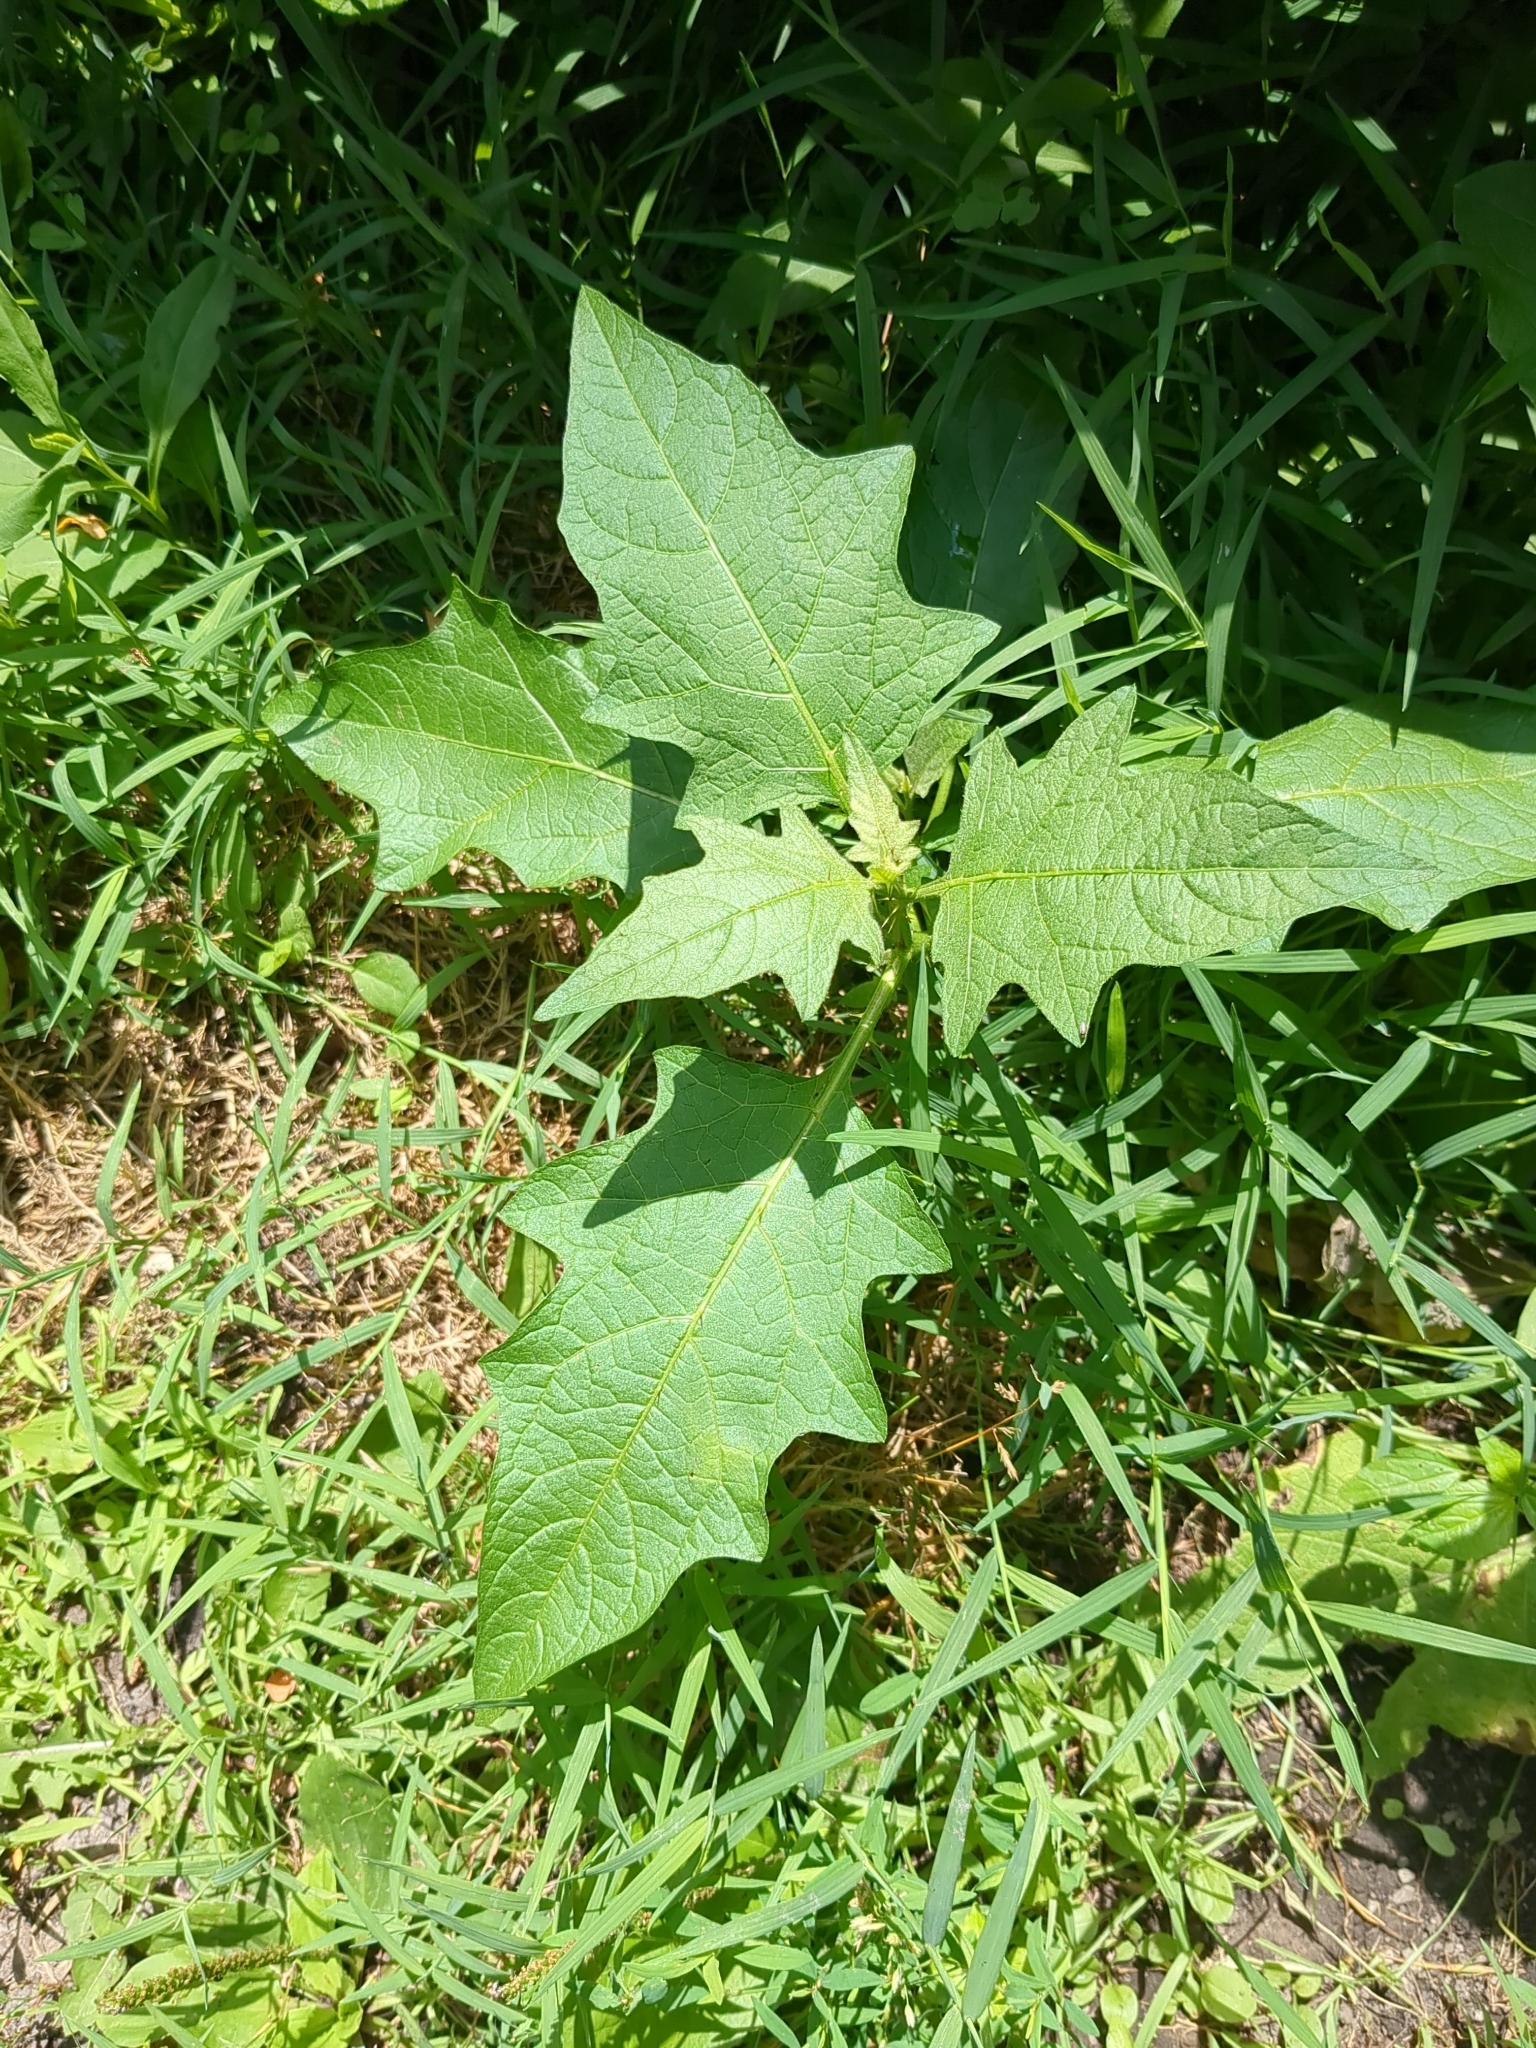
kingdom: Plantae
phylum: Tracheophyta
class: Magnoliopsida
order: Solanales
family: Solanaceae
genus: Solanum
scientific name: Solanum carolinense
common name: Horse-nettle
